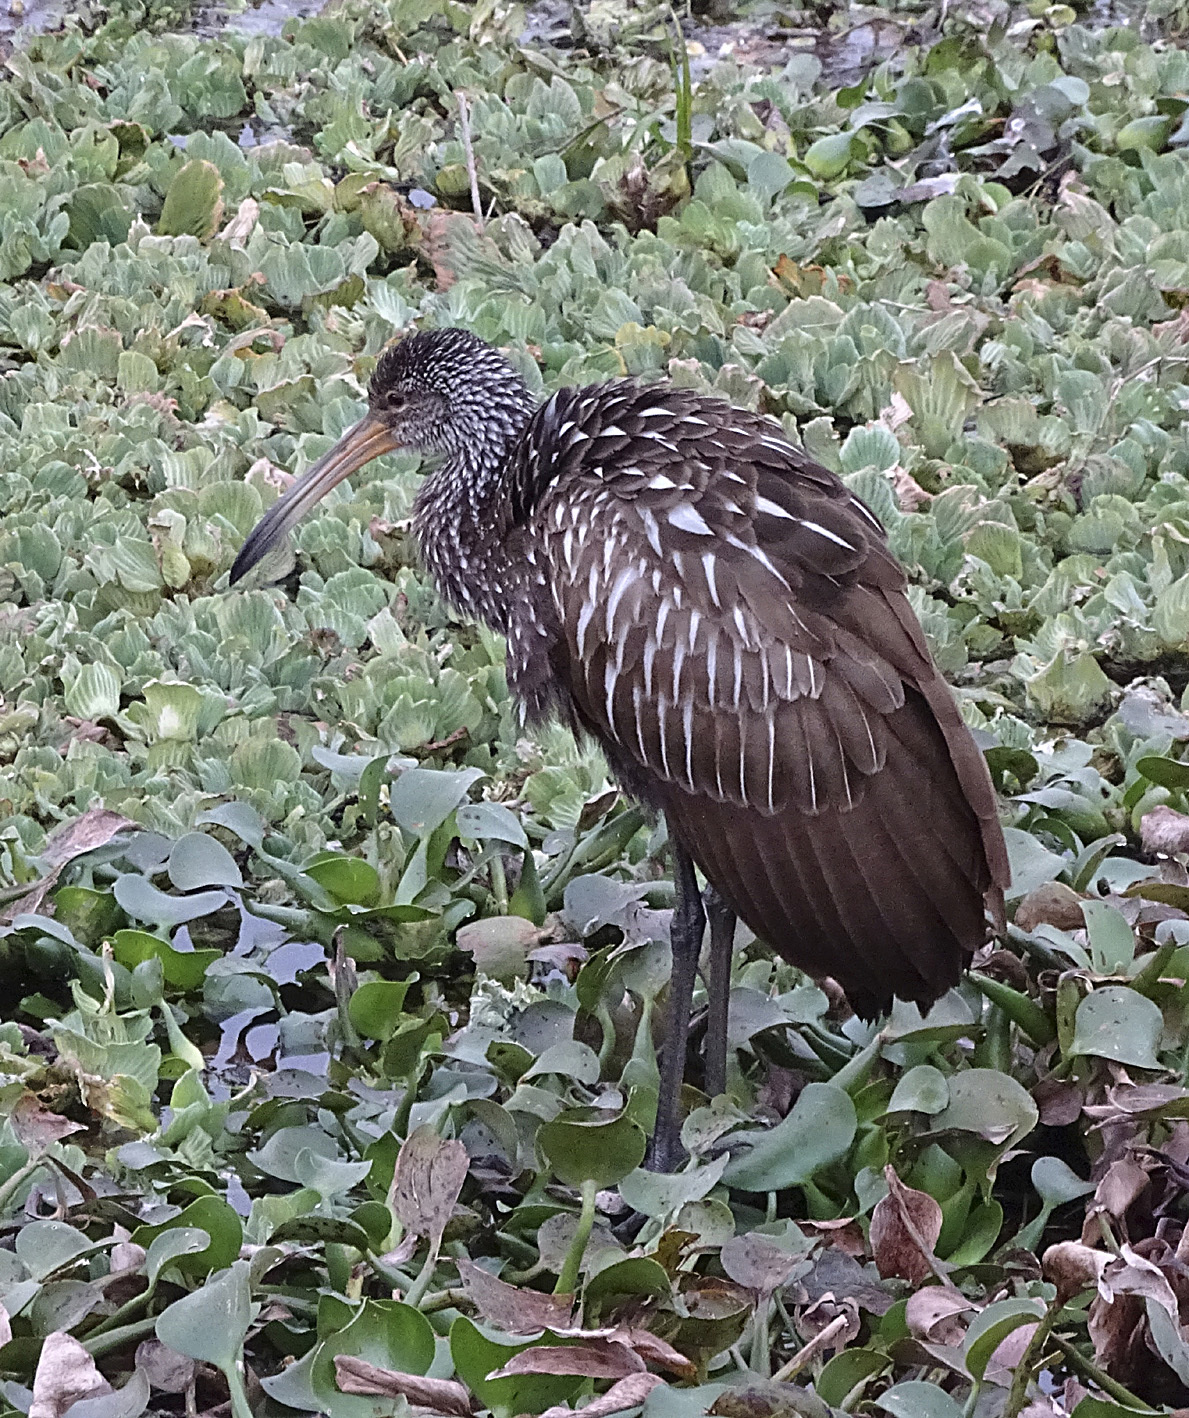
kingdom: Animalia
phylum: Chordata
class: Aves
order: Gruiformes
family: Aramidae
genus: Aramus
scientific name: Aramus guarauna
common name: Limpkin
